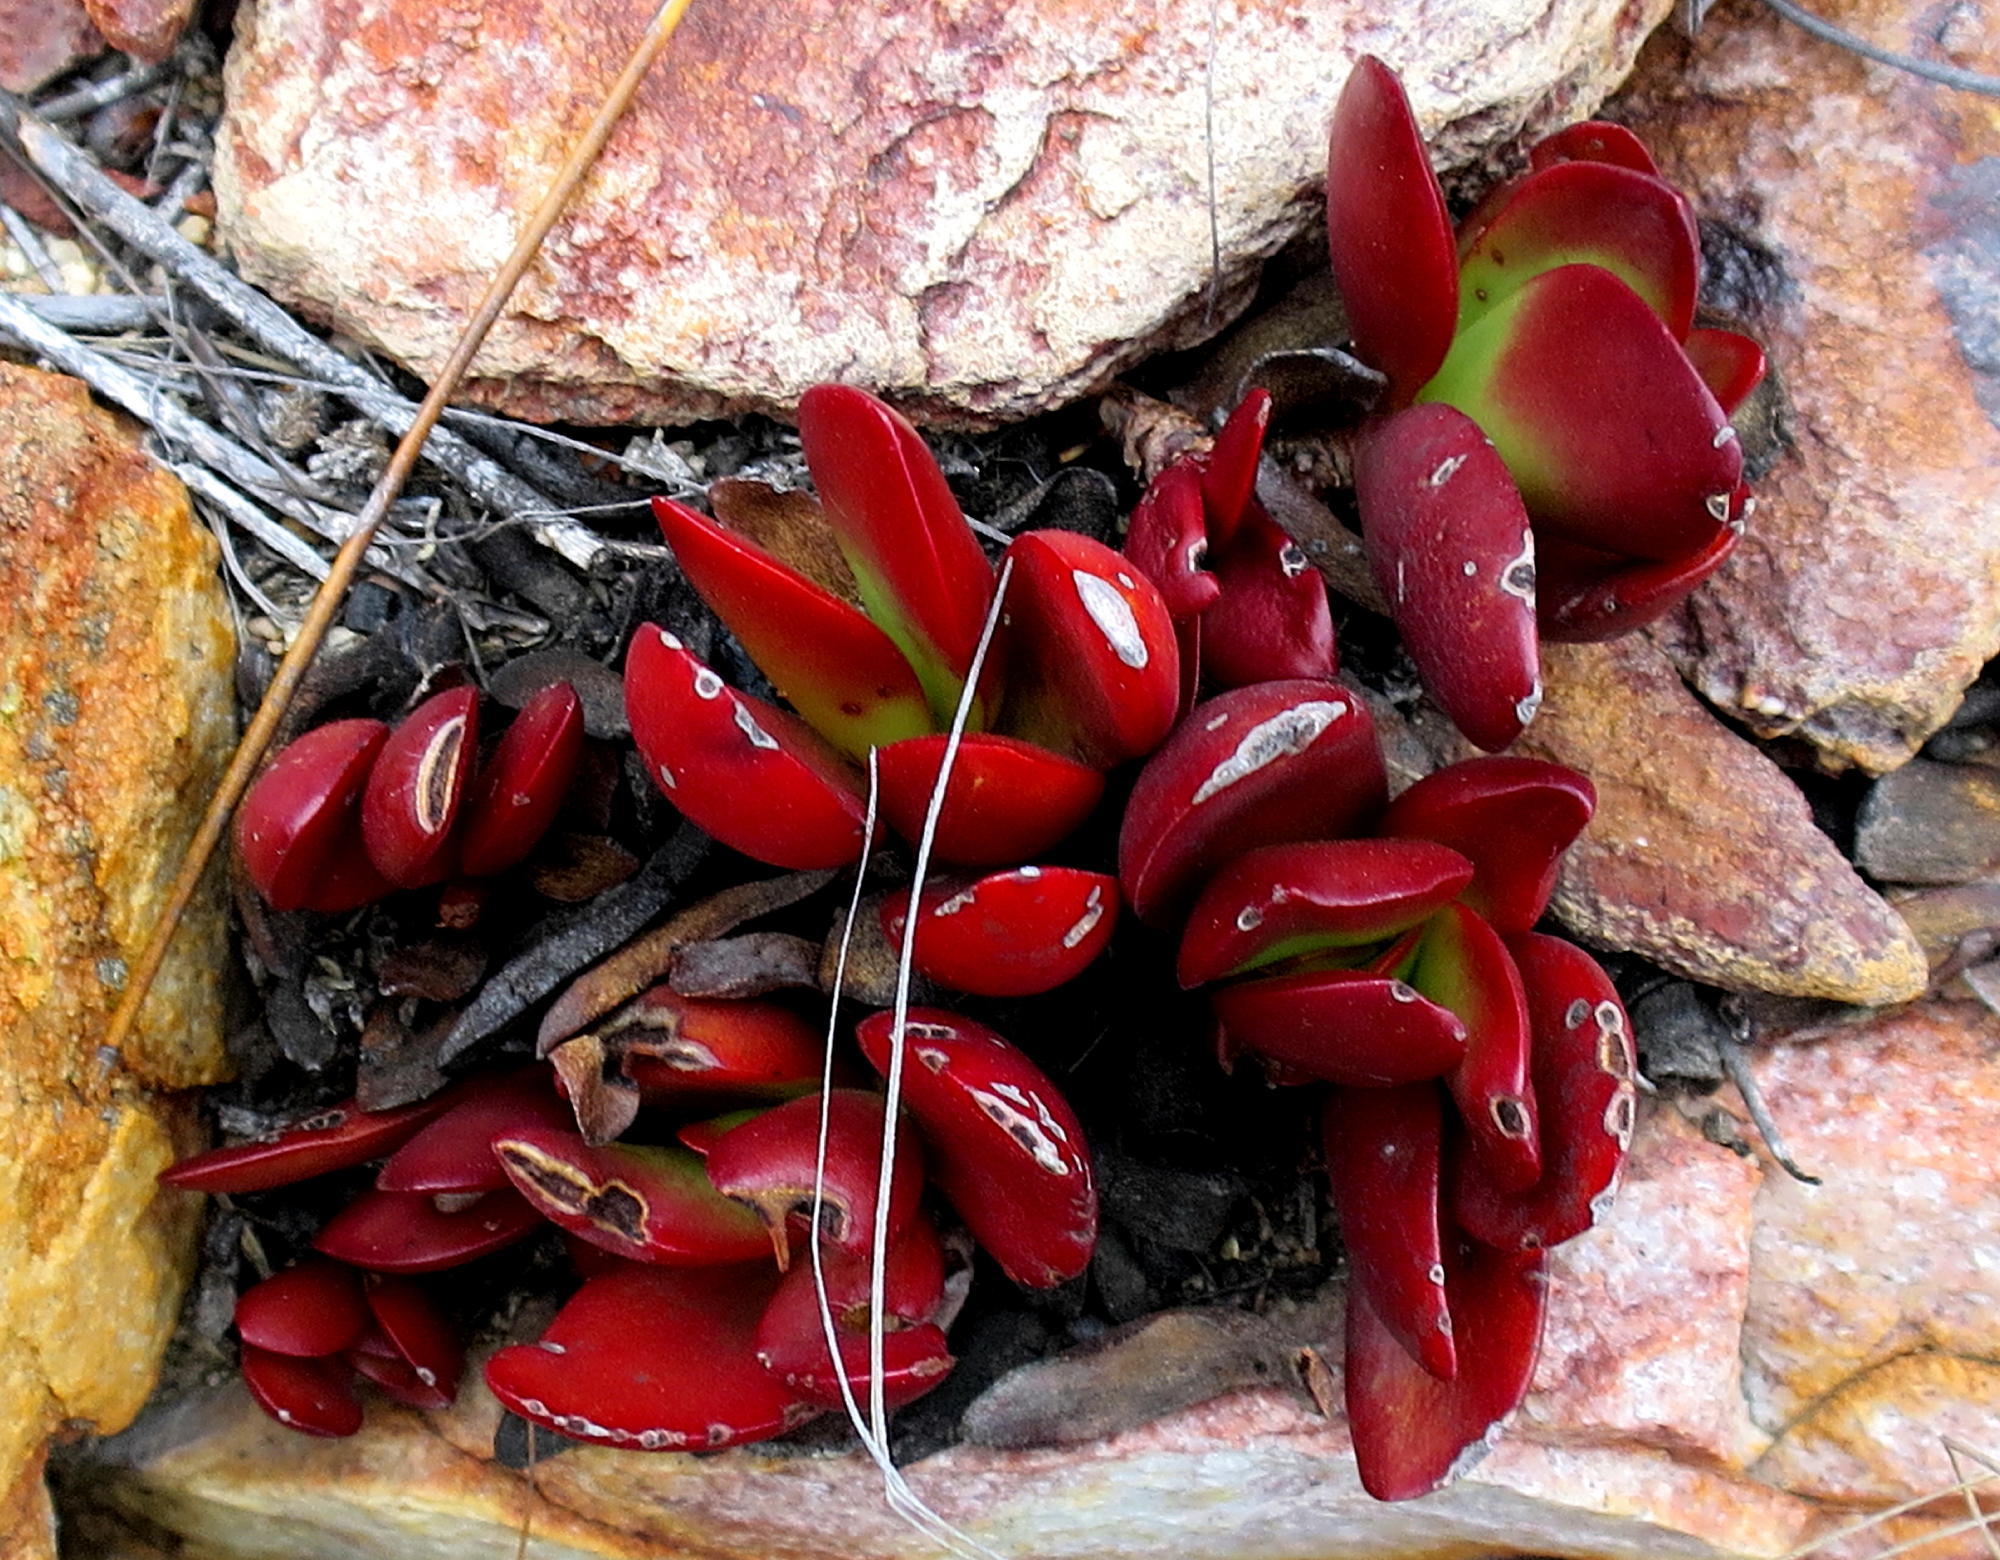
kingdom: Plantae
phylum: Tracheophyta
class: Magnoliopsida
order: Saxifragales
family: Crassulaceae
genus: Crassula
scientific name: Crassula atropurpurea
